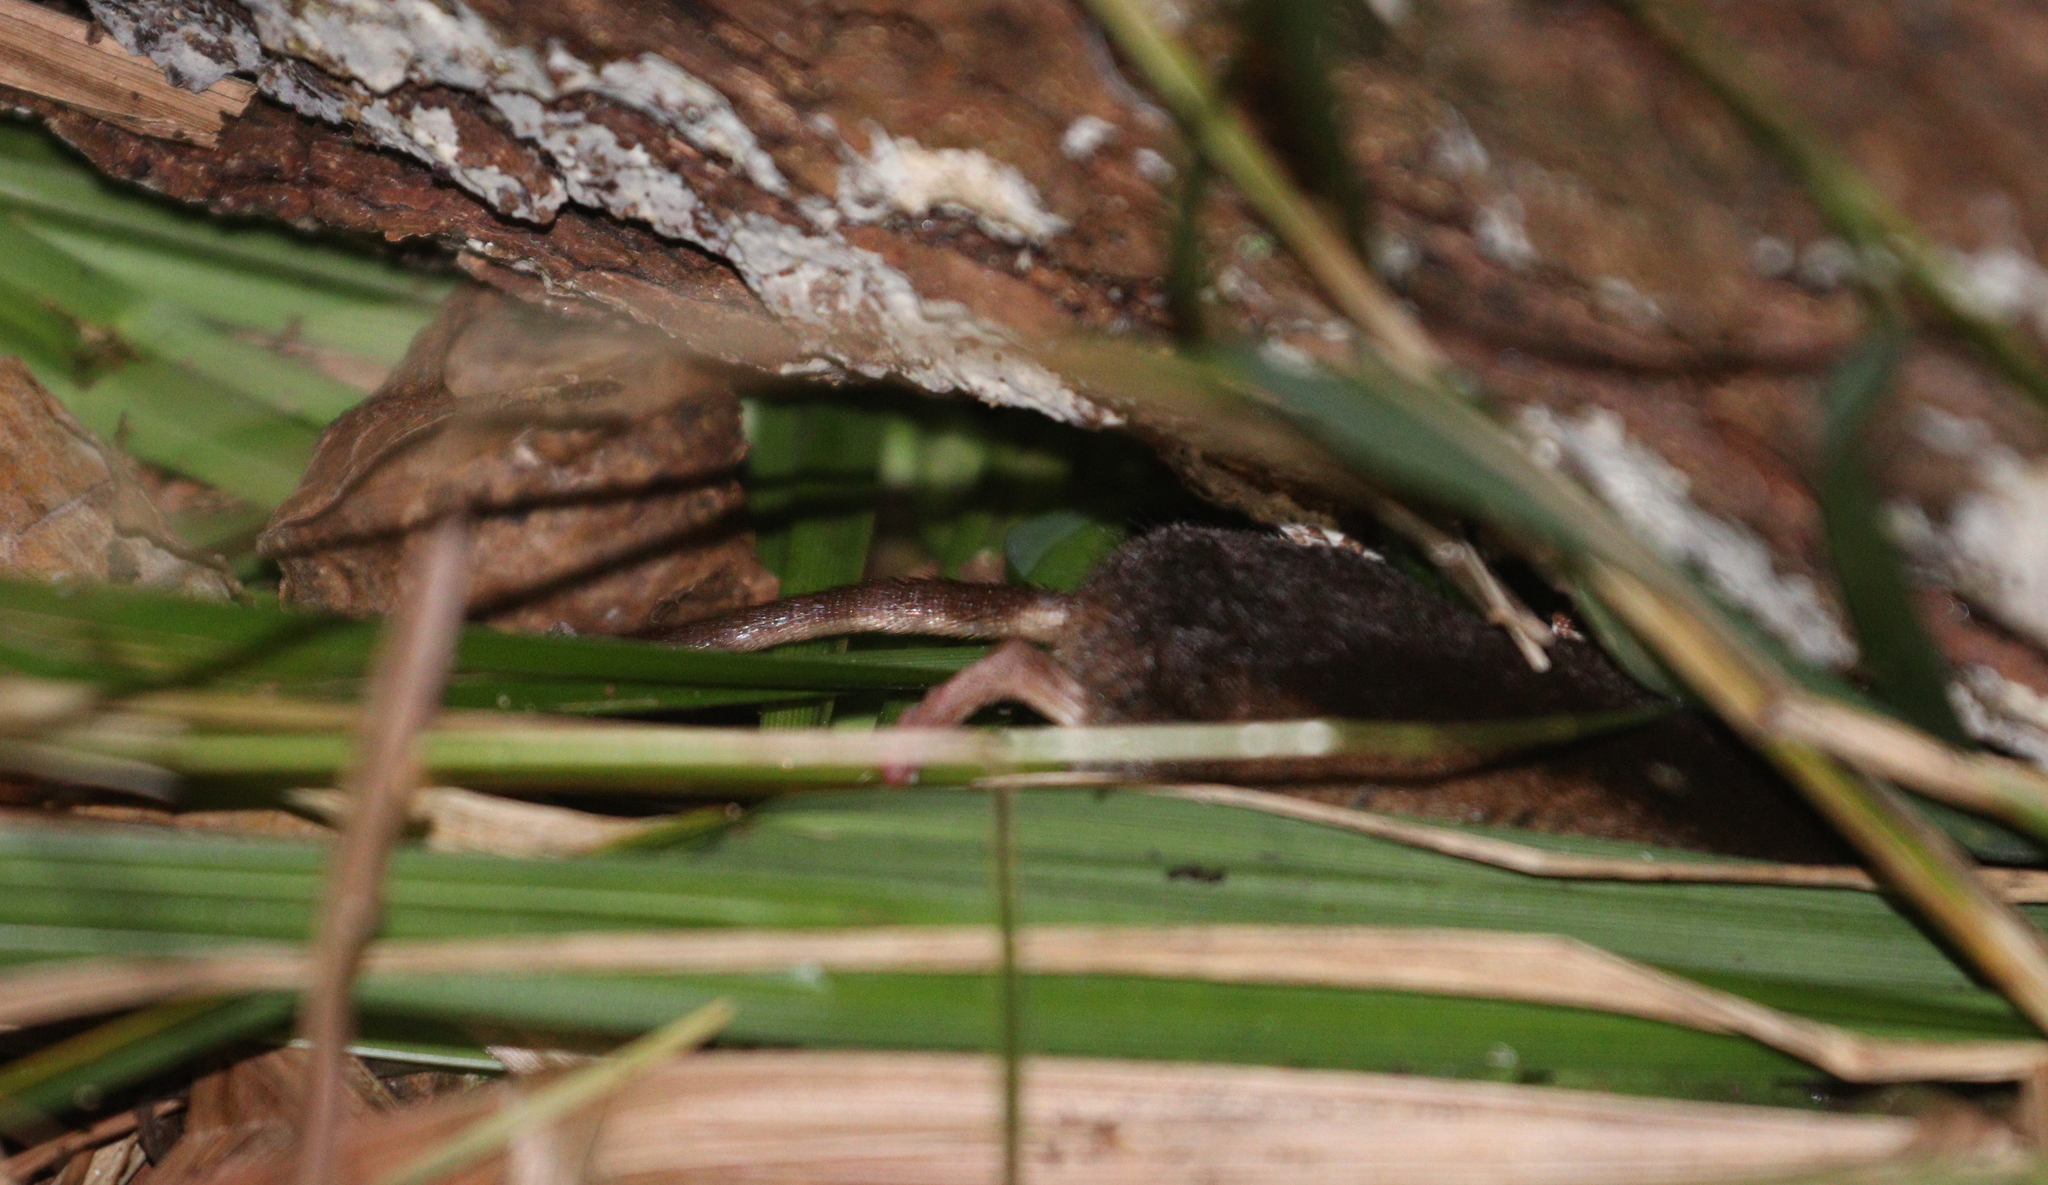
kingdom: Animalia
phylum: Chordata
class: Mammalia
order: Soricomorpha
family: Soricidae
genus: Sorex
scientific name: Sorex araneus
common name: Common shrew
